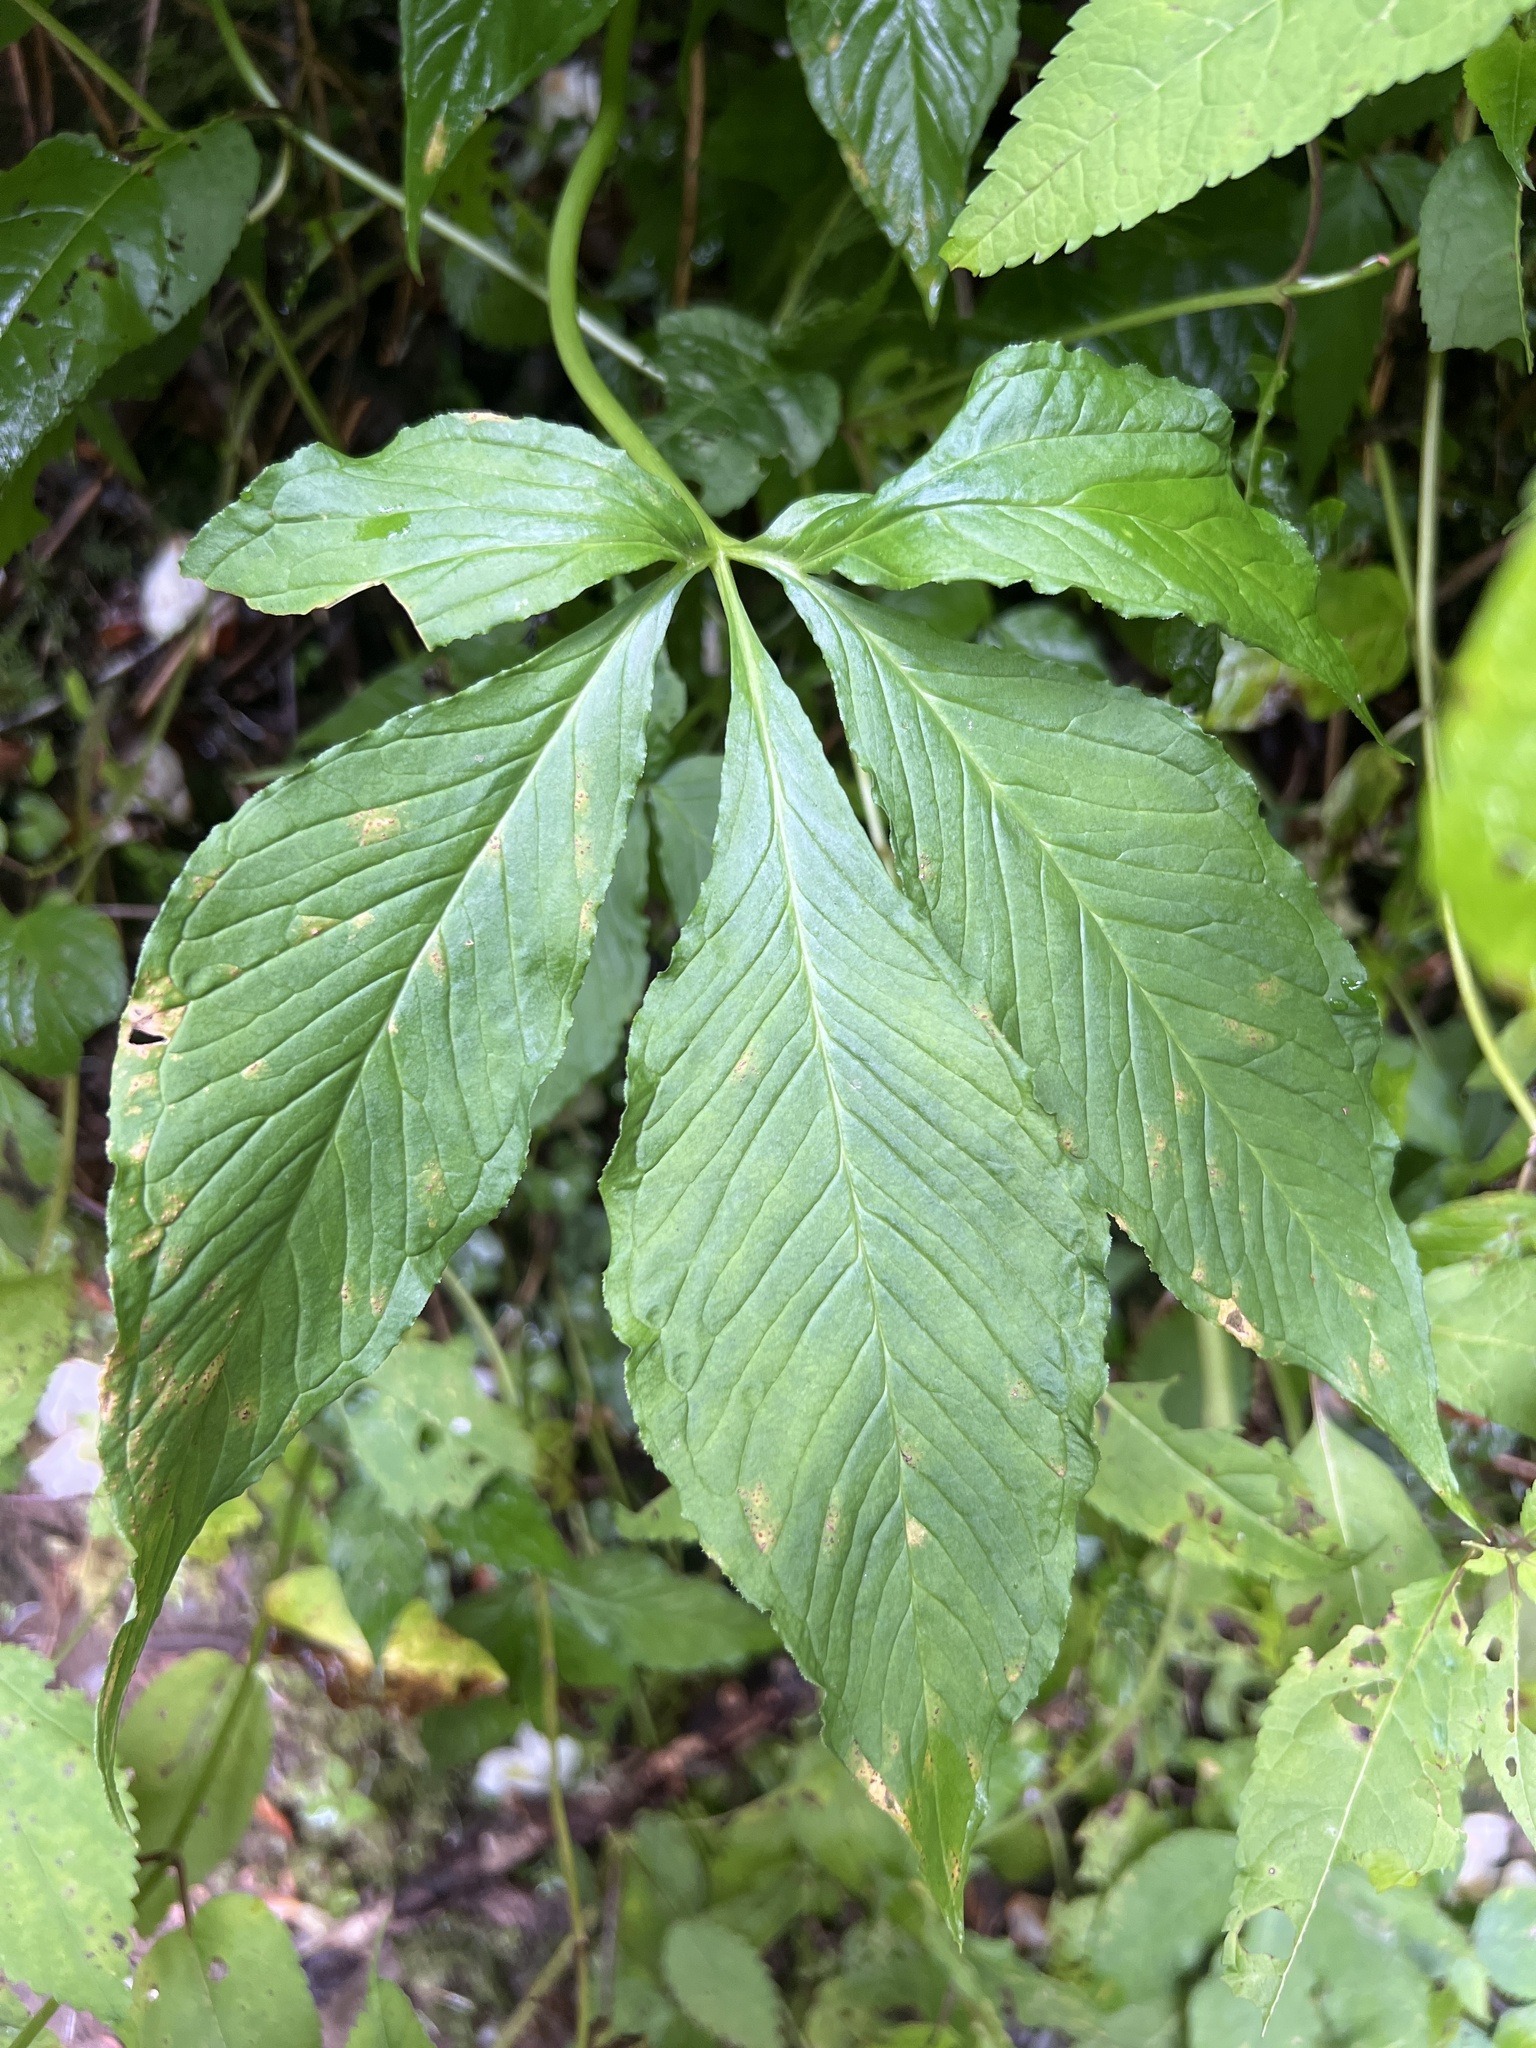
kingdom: Plantae
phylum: Tracheophyta
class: Liliopsida
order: Alismatales
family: Araceae
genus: Arisaema
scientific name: Arisaema quinatum
